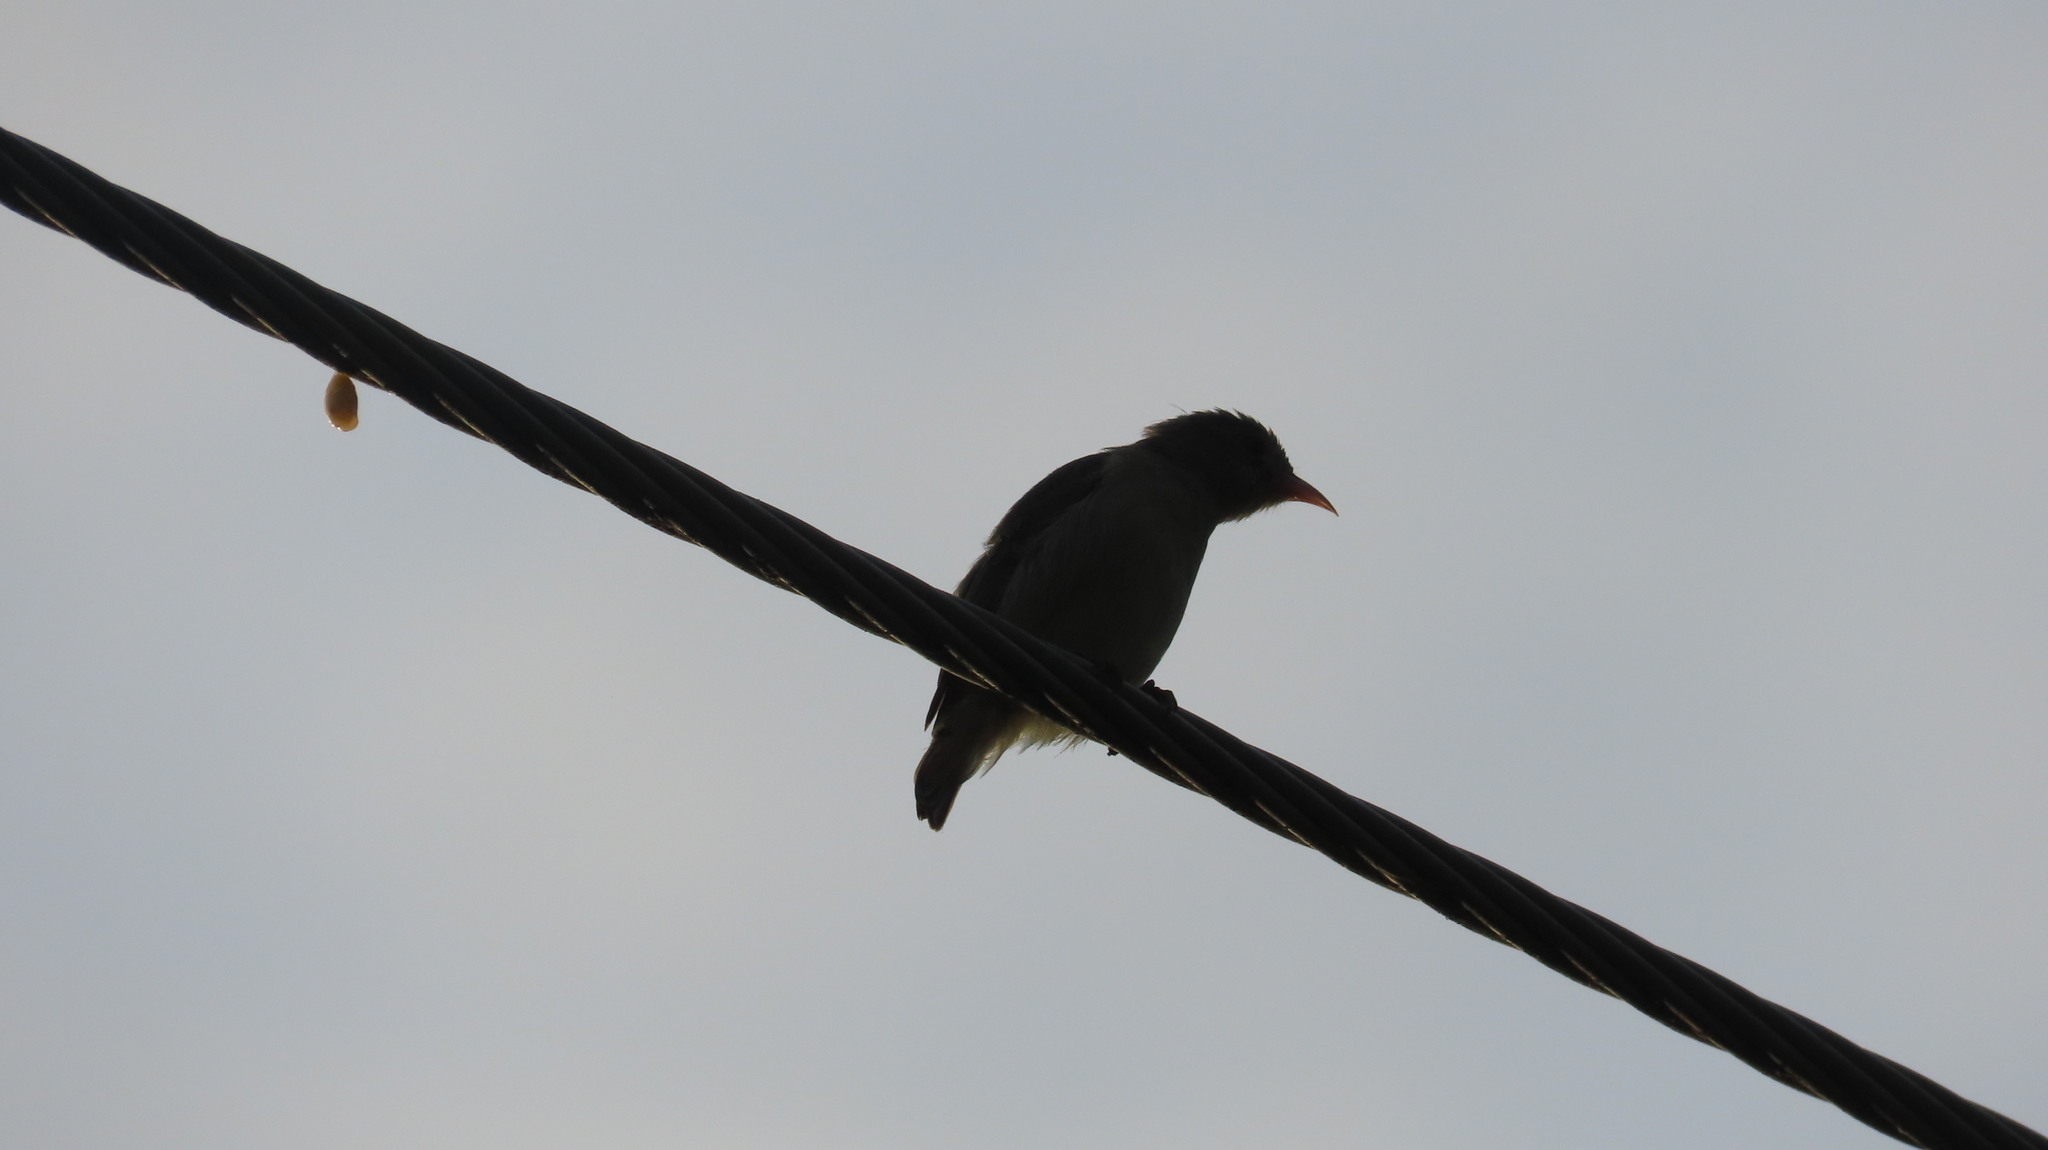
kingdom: Animalia
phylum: Chordata
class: Aves
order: Passeriformes
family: Dicaeidae
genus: Dicaeum
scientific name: Dicaeum erythrorhynchos
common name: Pale-billed flowerpecker
